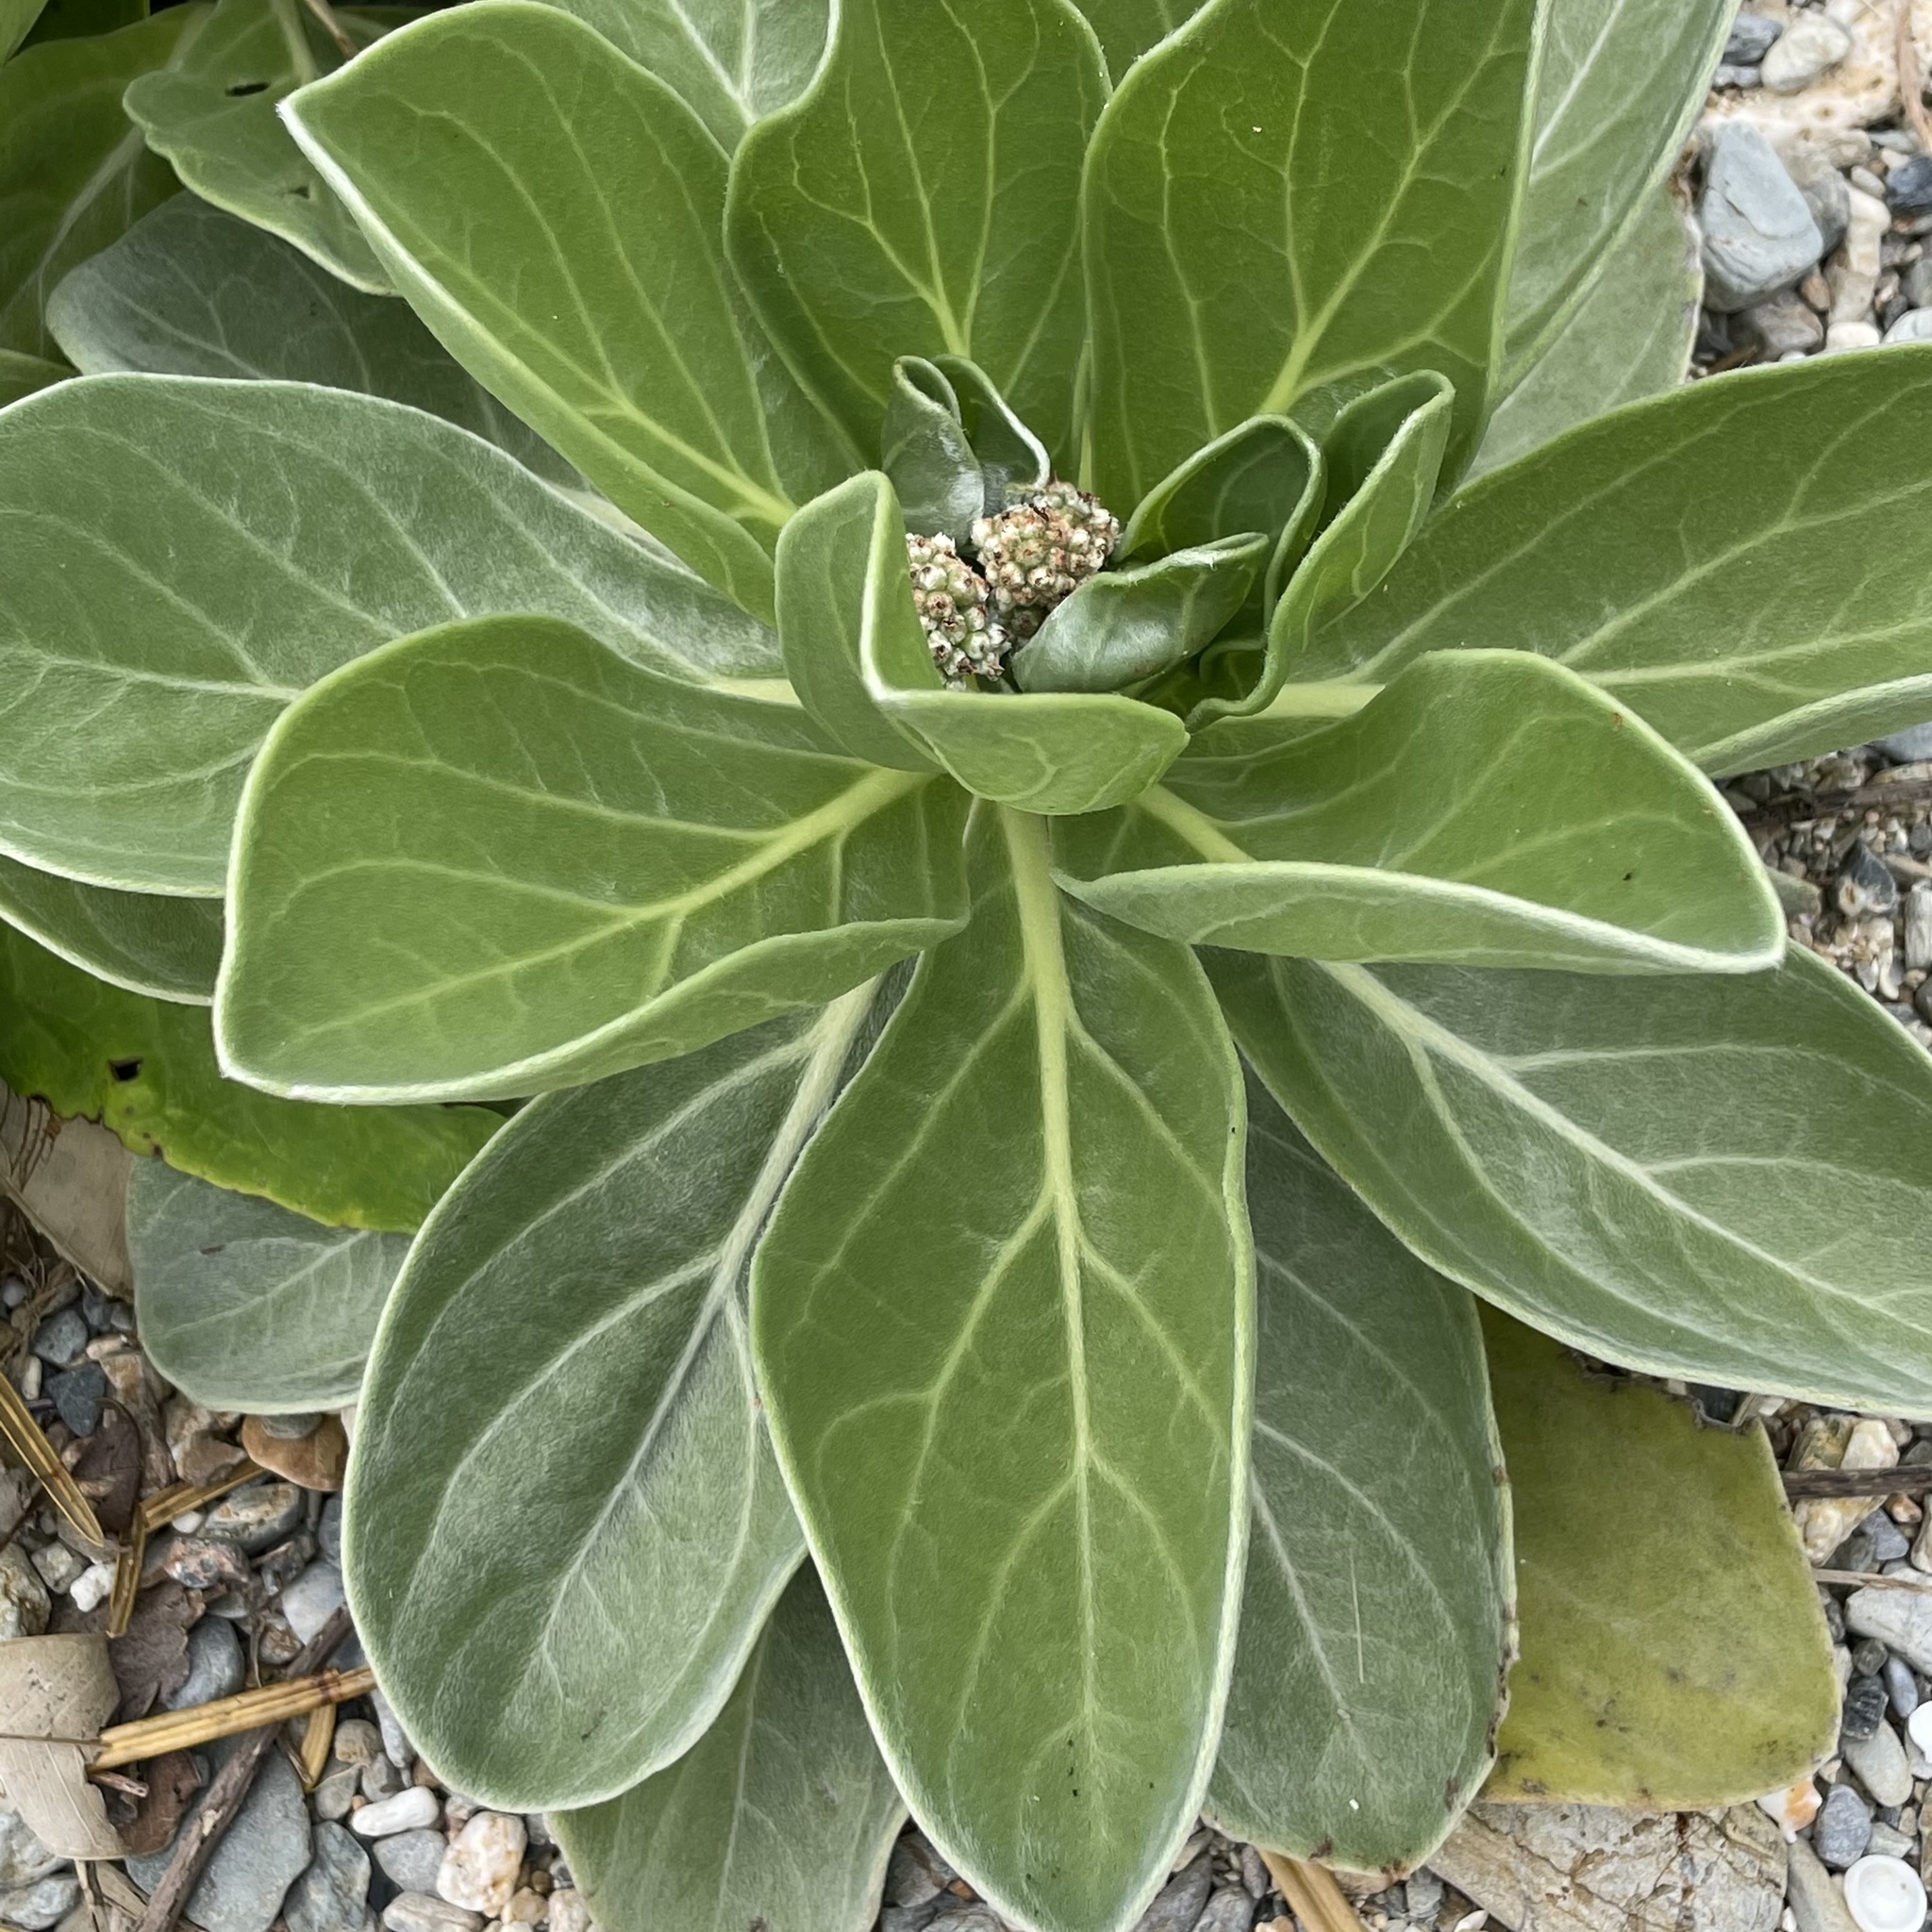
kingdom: Plantae
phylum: Tracheophyta
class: Magnoliopsida
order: Boraginales
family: Heliotropiaceae
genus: Heliotropium
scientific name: Heliotropium velutinum
